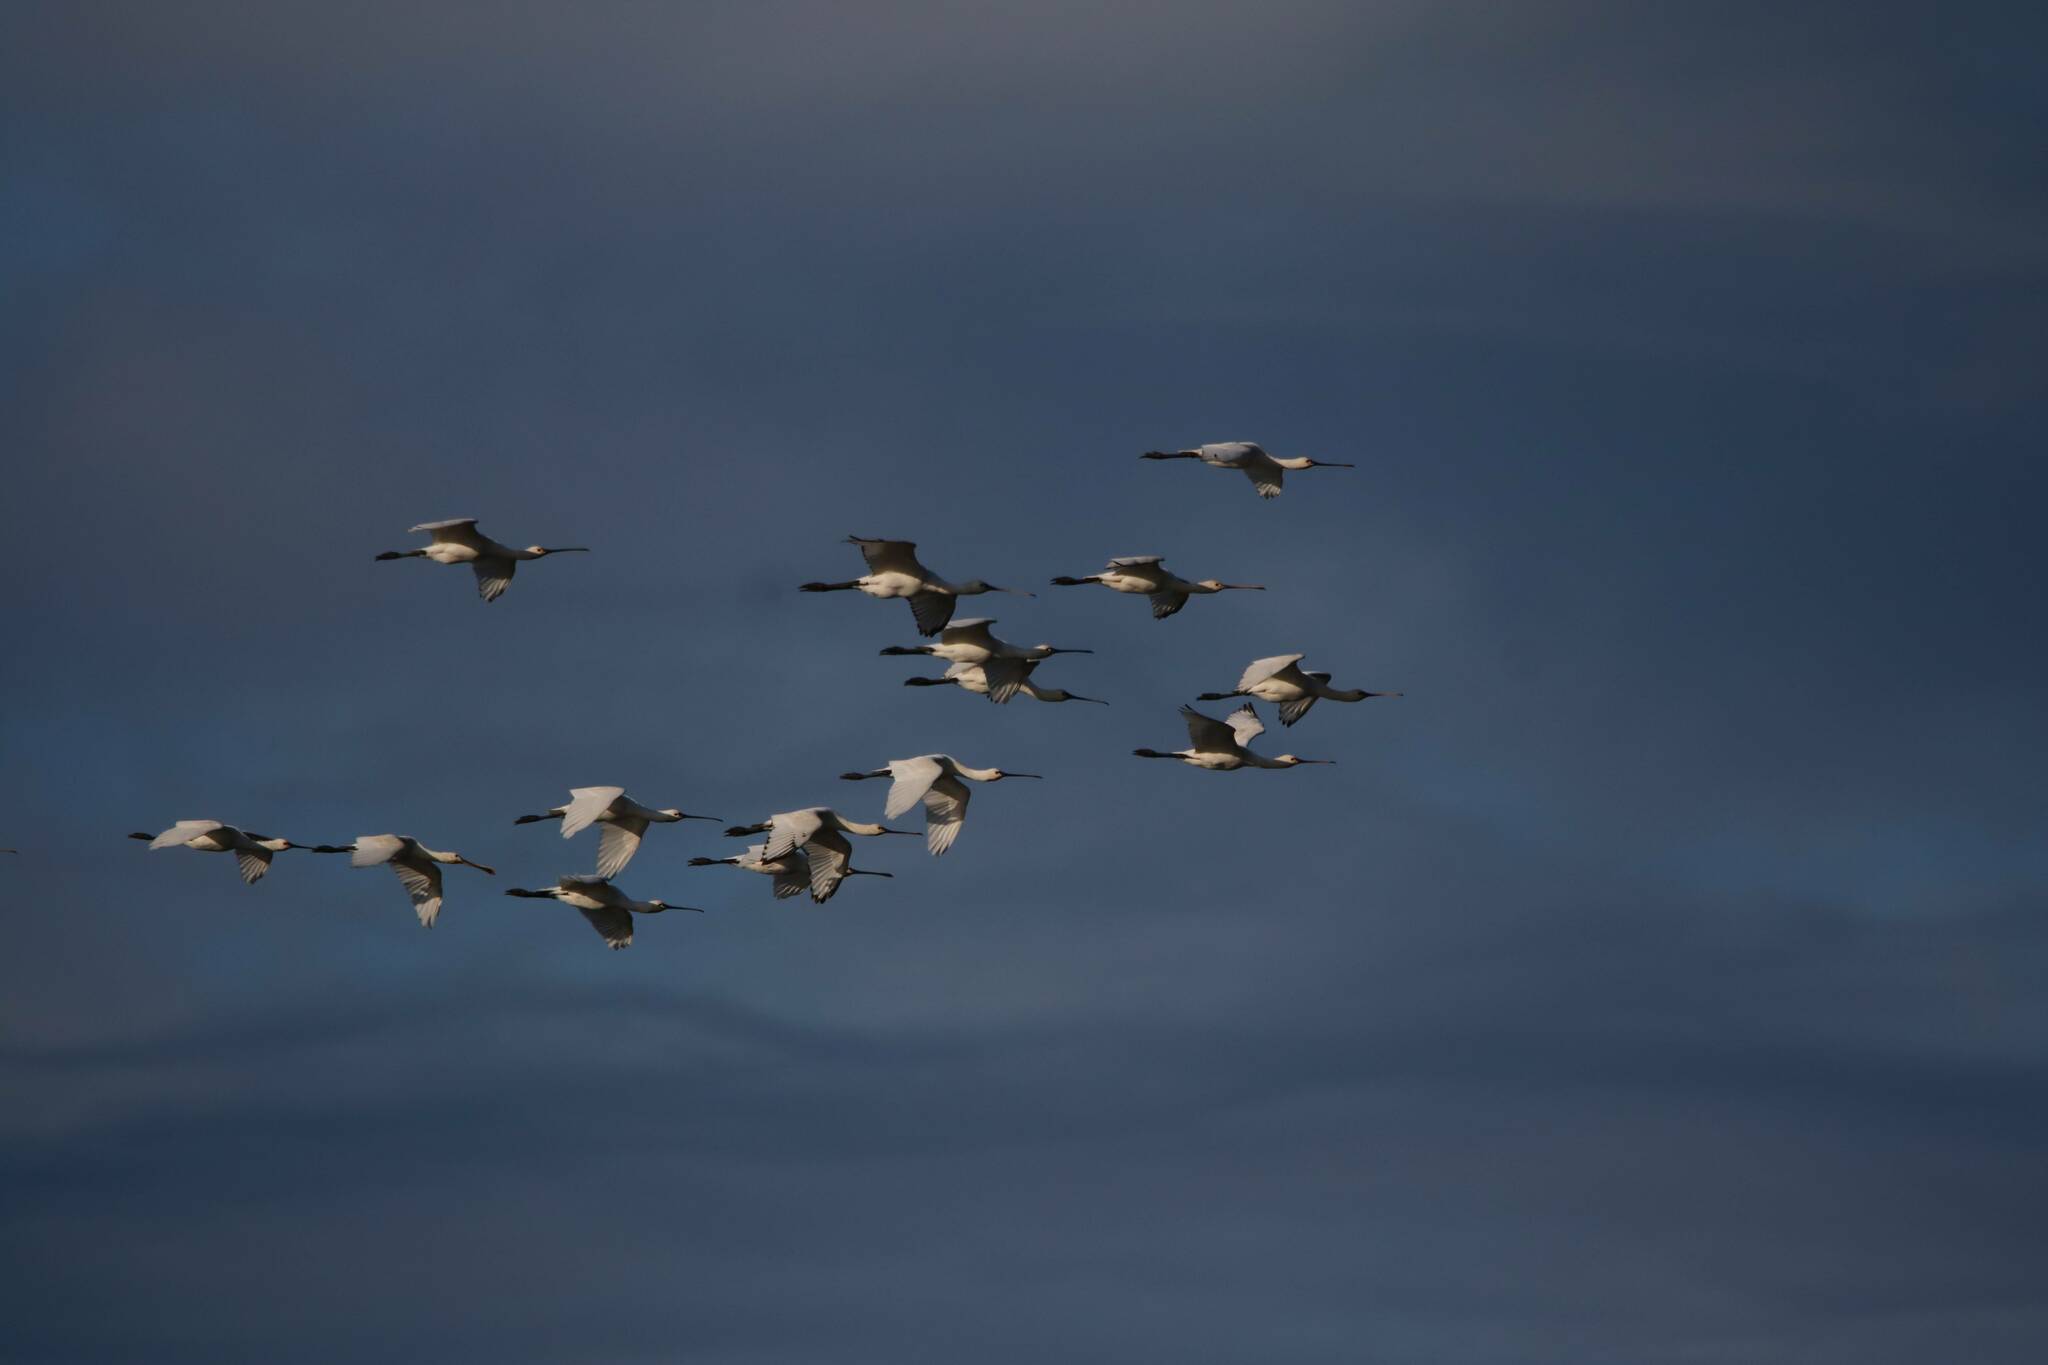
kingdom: Animalia
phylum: Chordata
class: Aves
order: Pelecaniformes
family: Threskiornithidae
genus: Platalea
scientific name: Platalea leucorodia
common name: Eurasian spoonbill
